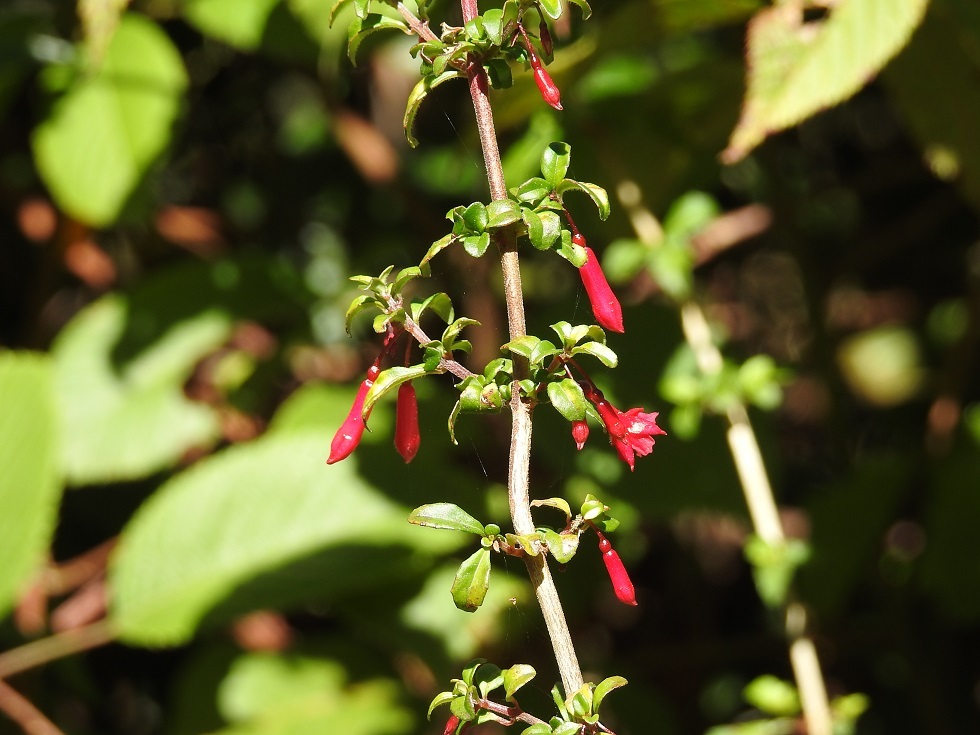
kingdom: Plantae
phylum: Tracheophyta
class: Magnoliopsida
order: Myrtales
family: Onagraceae
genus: Fuchsia
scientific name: Fuchsia microphylla
